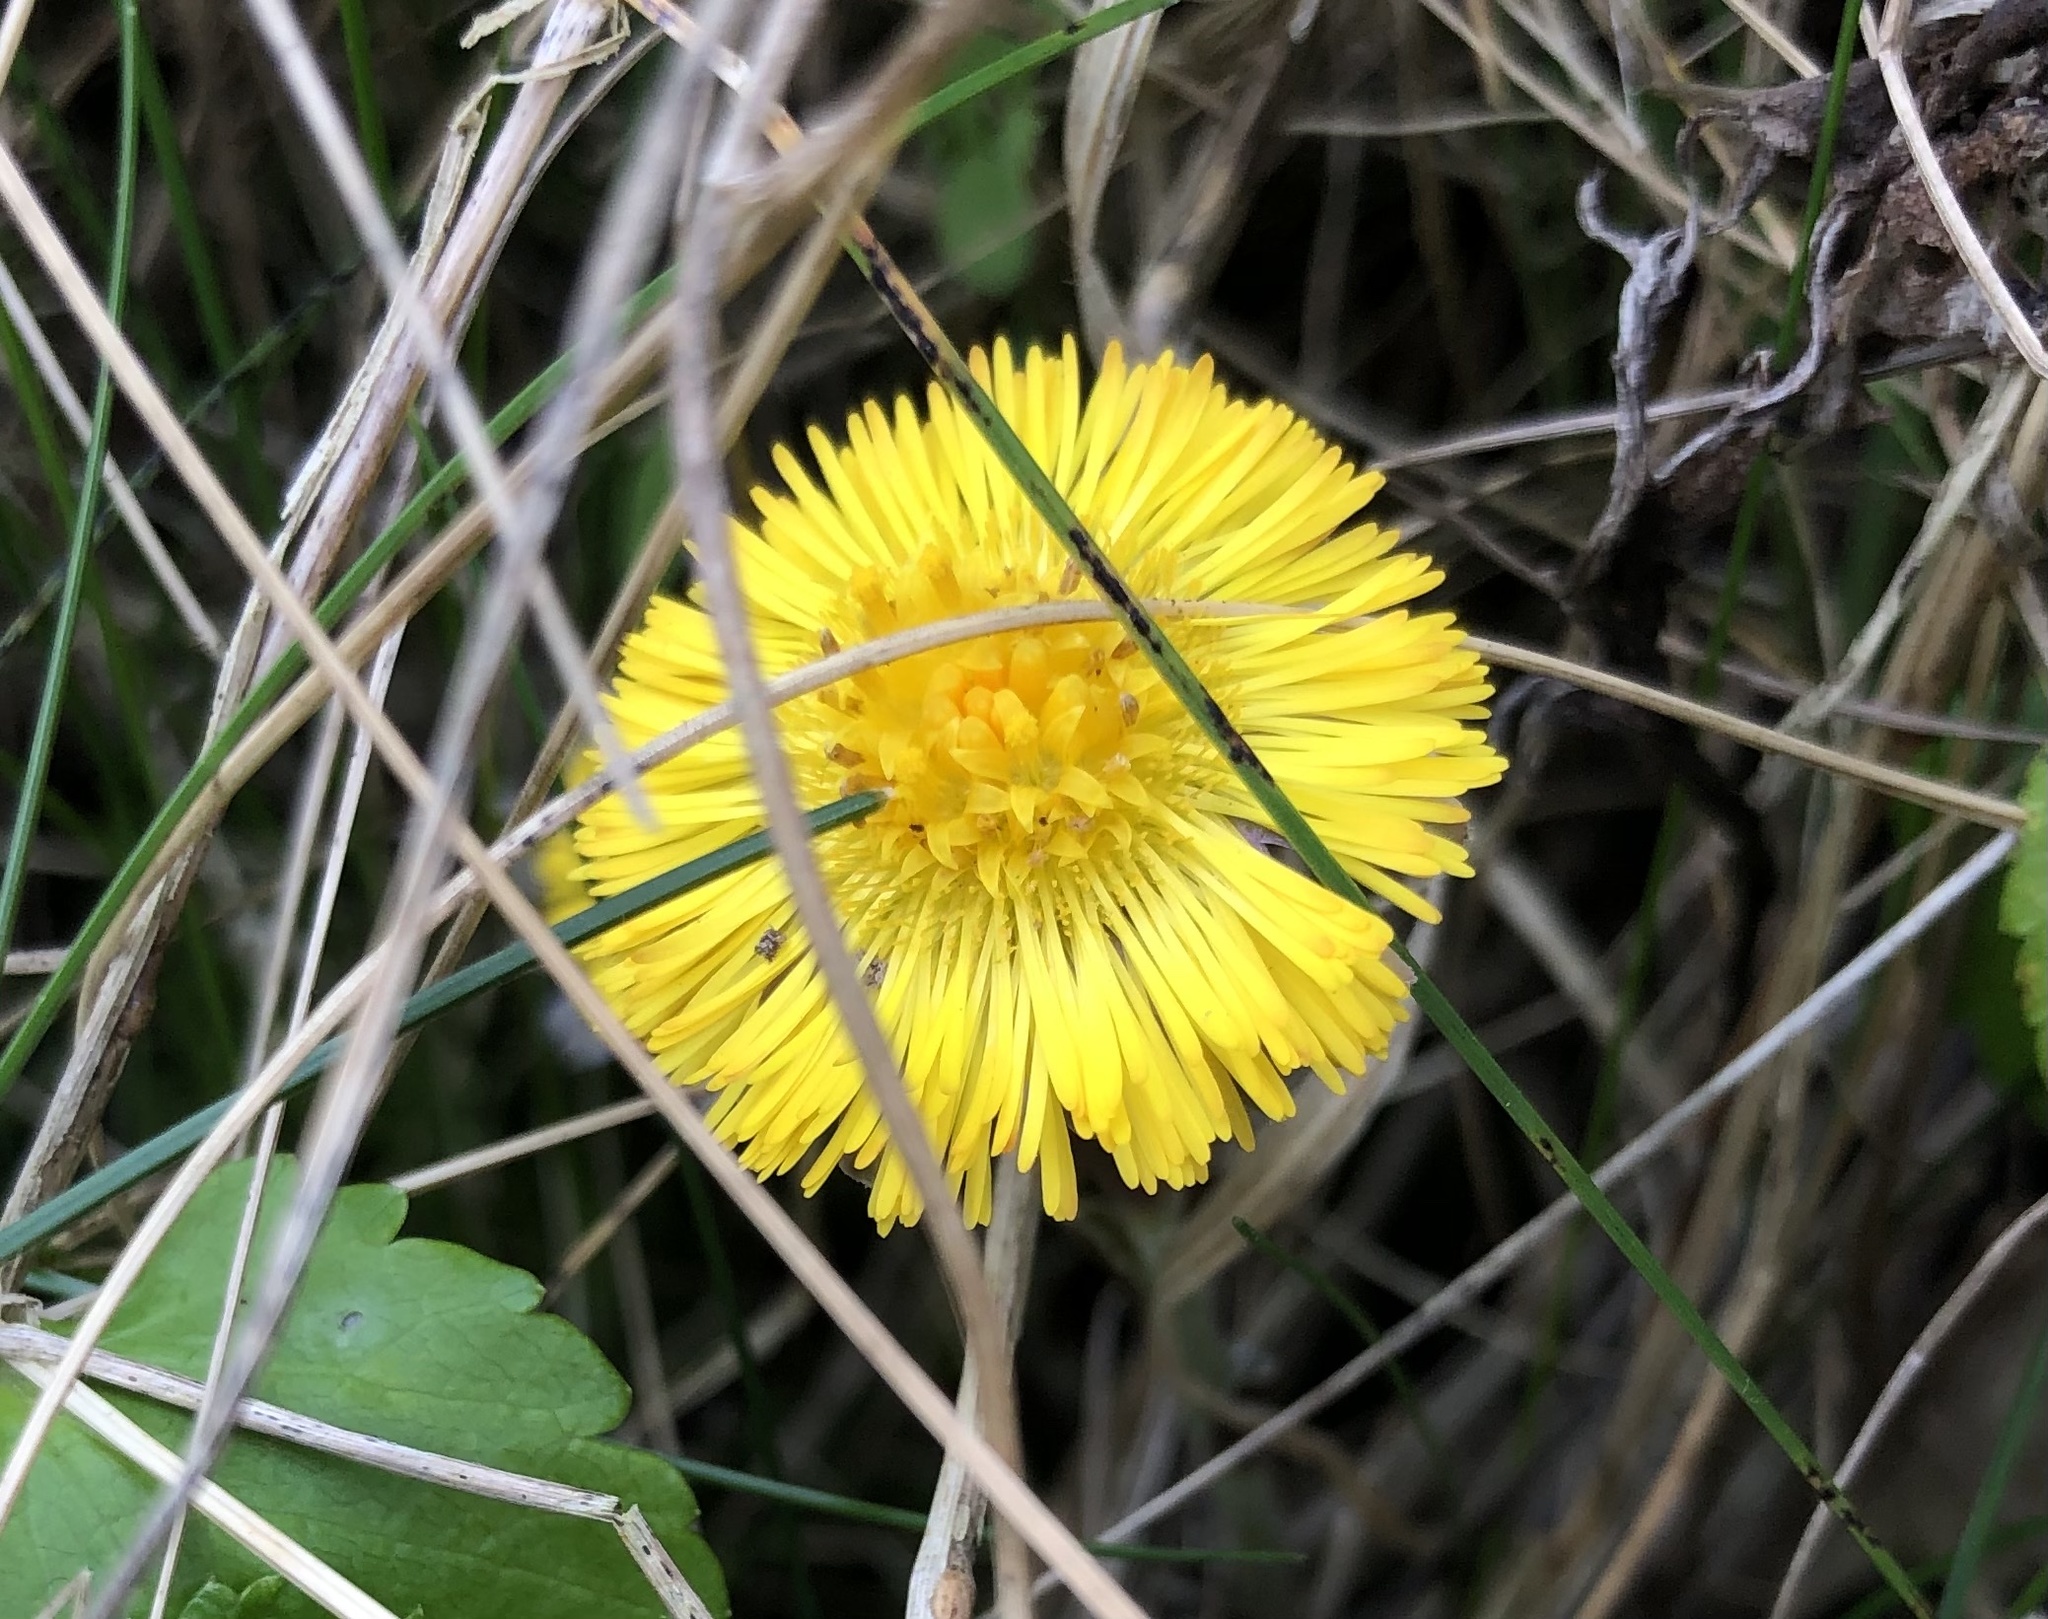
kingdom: Plantae
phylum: Tracheophyta
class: Magnoliopsida
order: Asterales
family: Asteraceae
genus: Tussilago
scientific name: Tussilago farfara
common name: Coltsfoot
